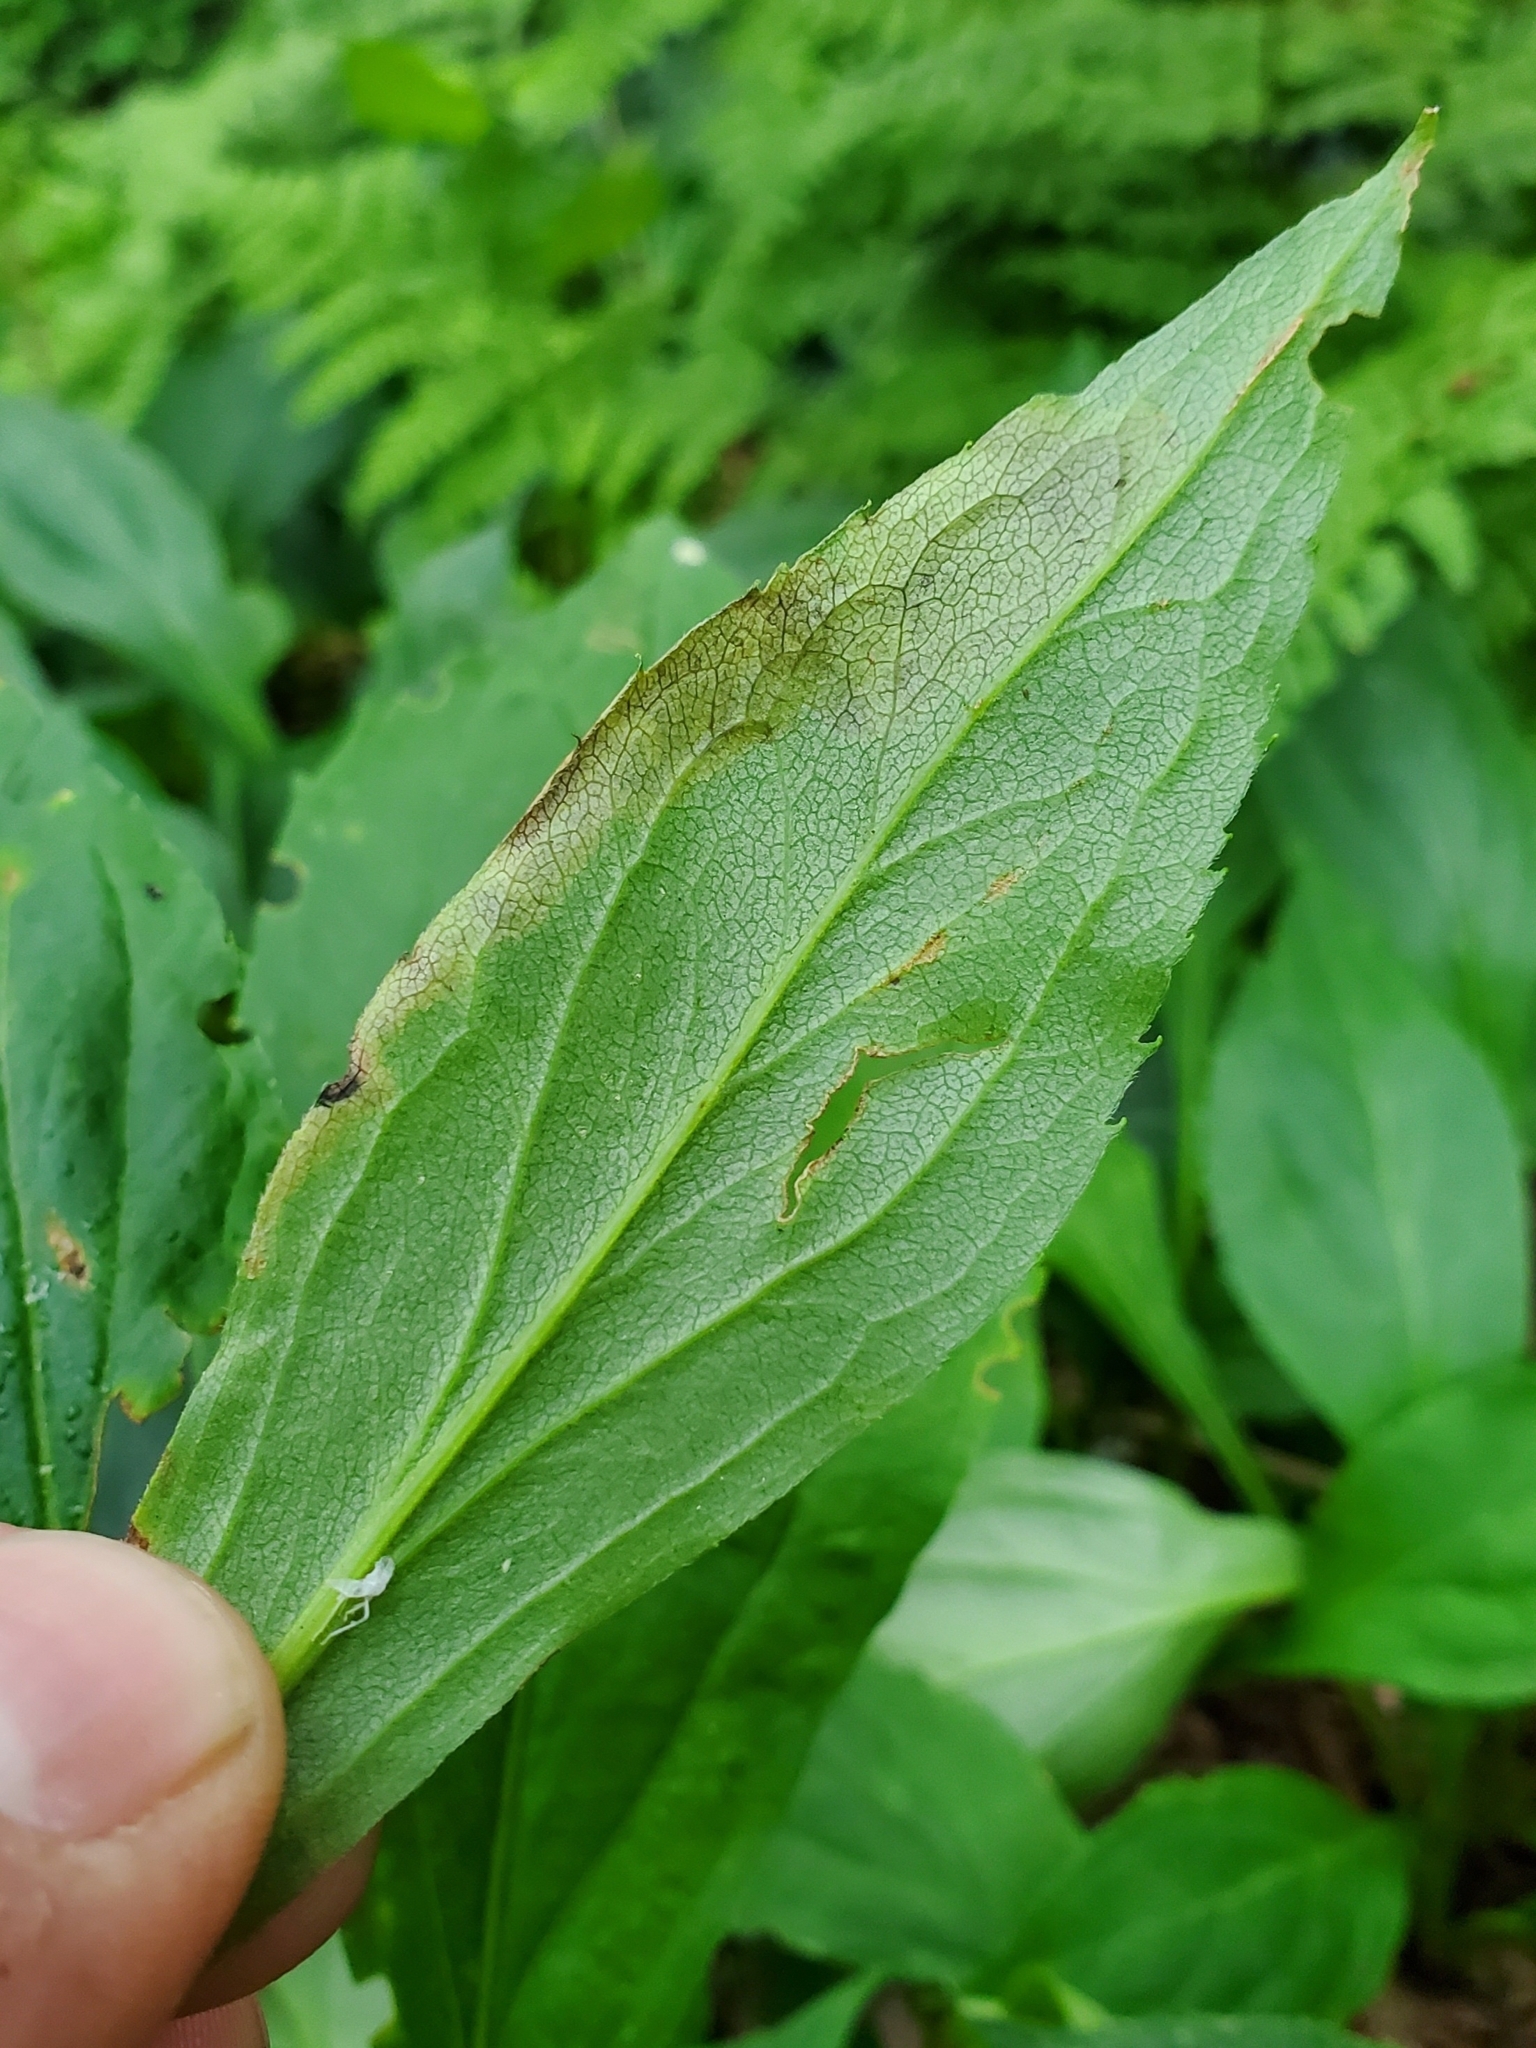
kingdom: Animalia
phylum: Arthropoda
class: Insecta
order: Diptera
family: Agromyzidae
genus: Nemorimyza
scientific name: Nemorimyza posticata
